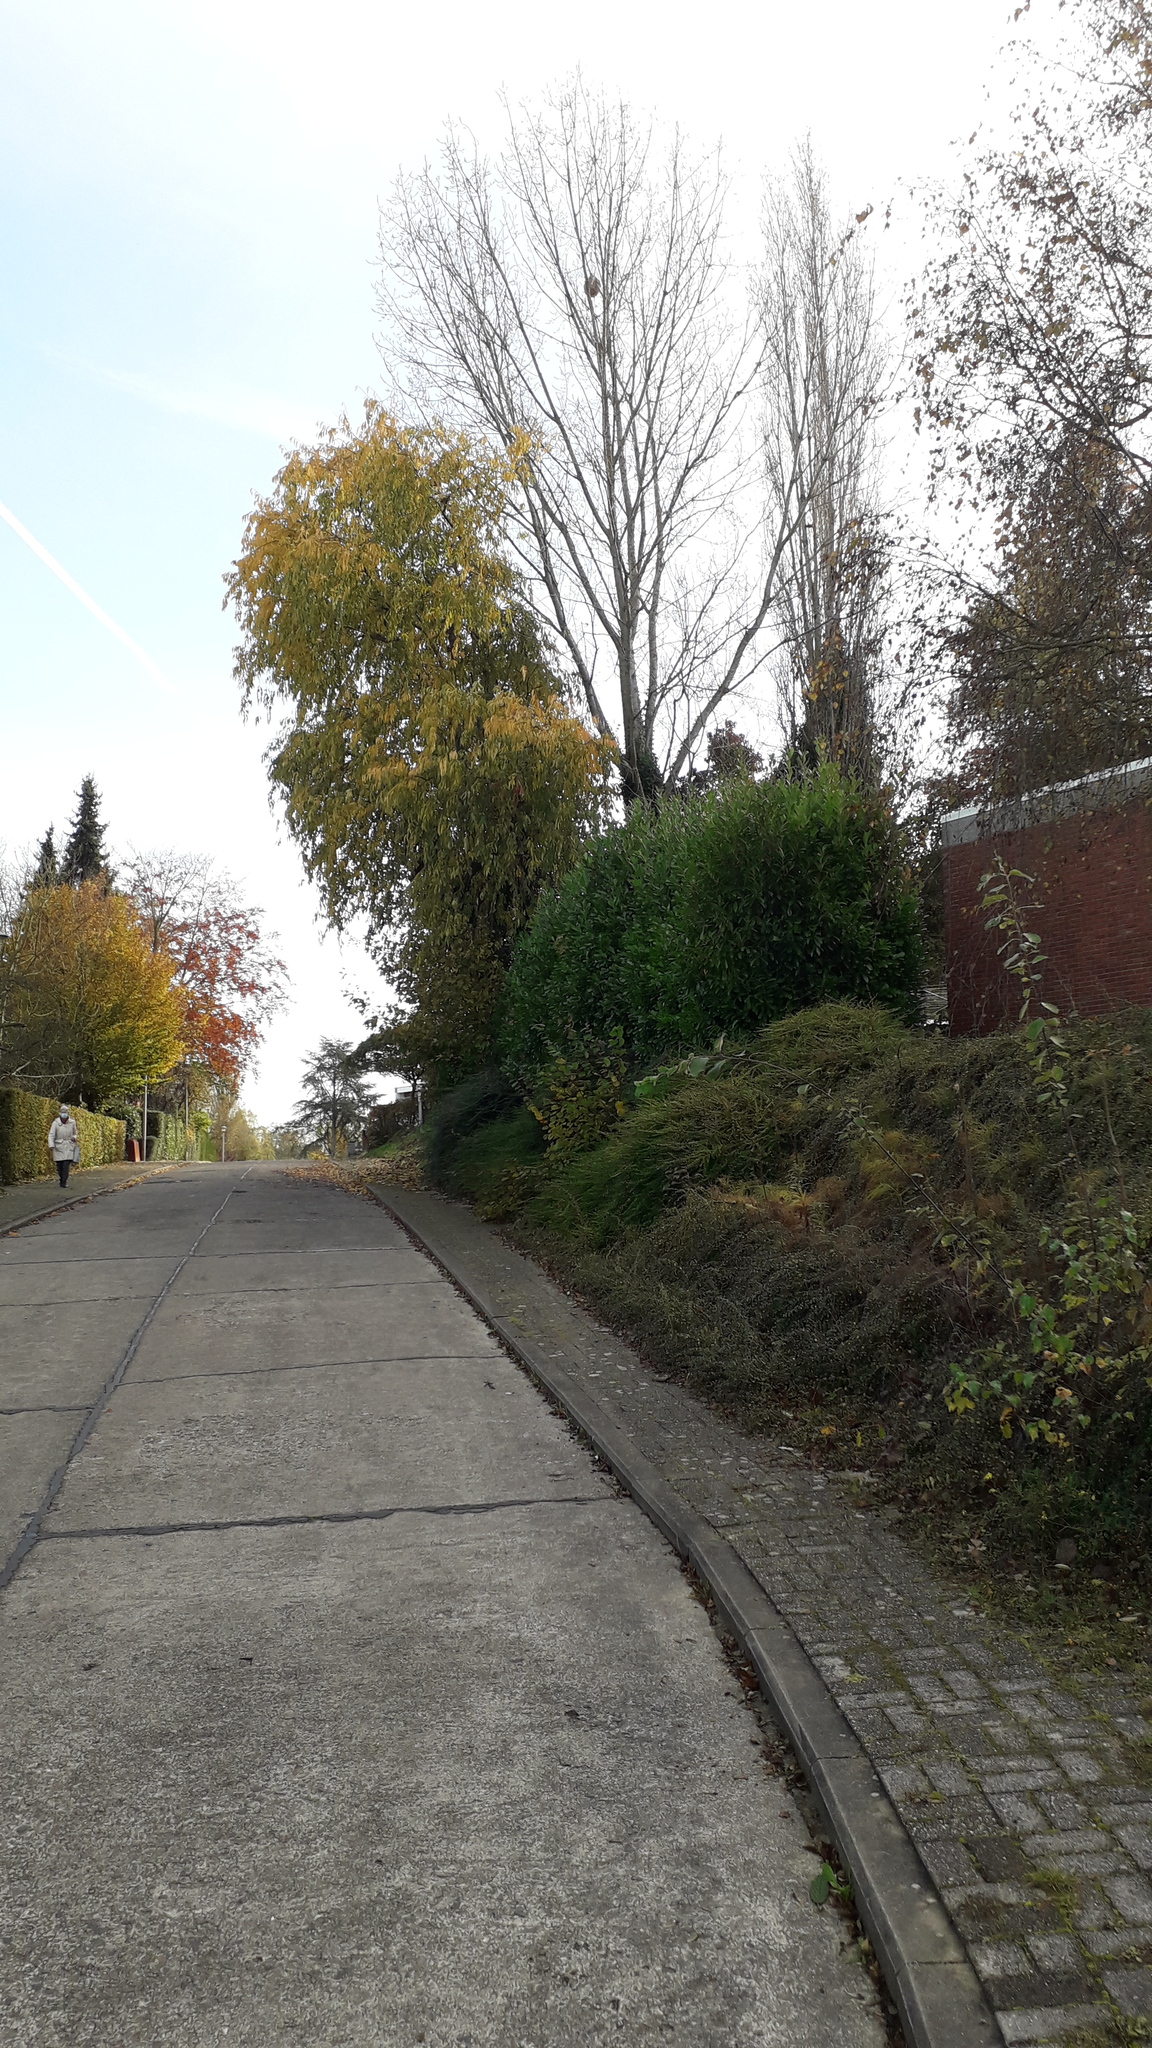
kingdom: Animalia
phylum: Arthropoda
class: Insecta
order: Hymenoptera
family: Vespidae
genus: Vespa
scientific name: Vespa velutina
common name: Asian hornet
